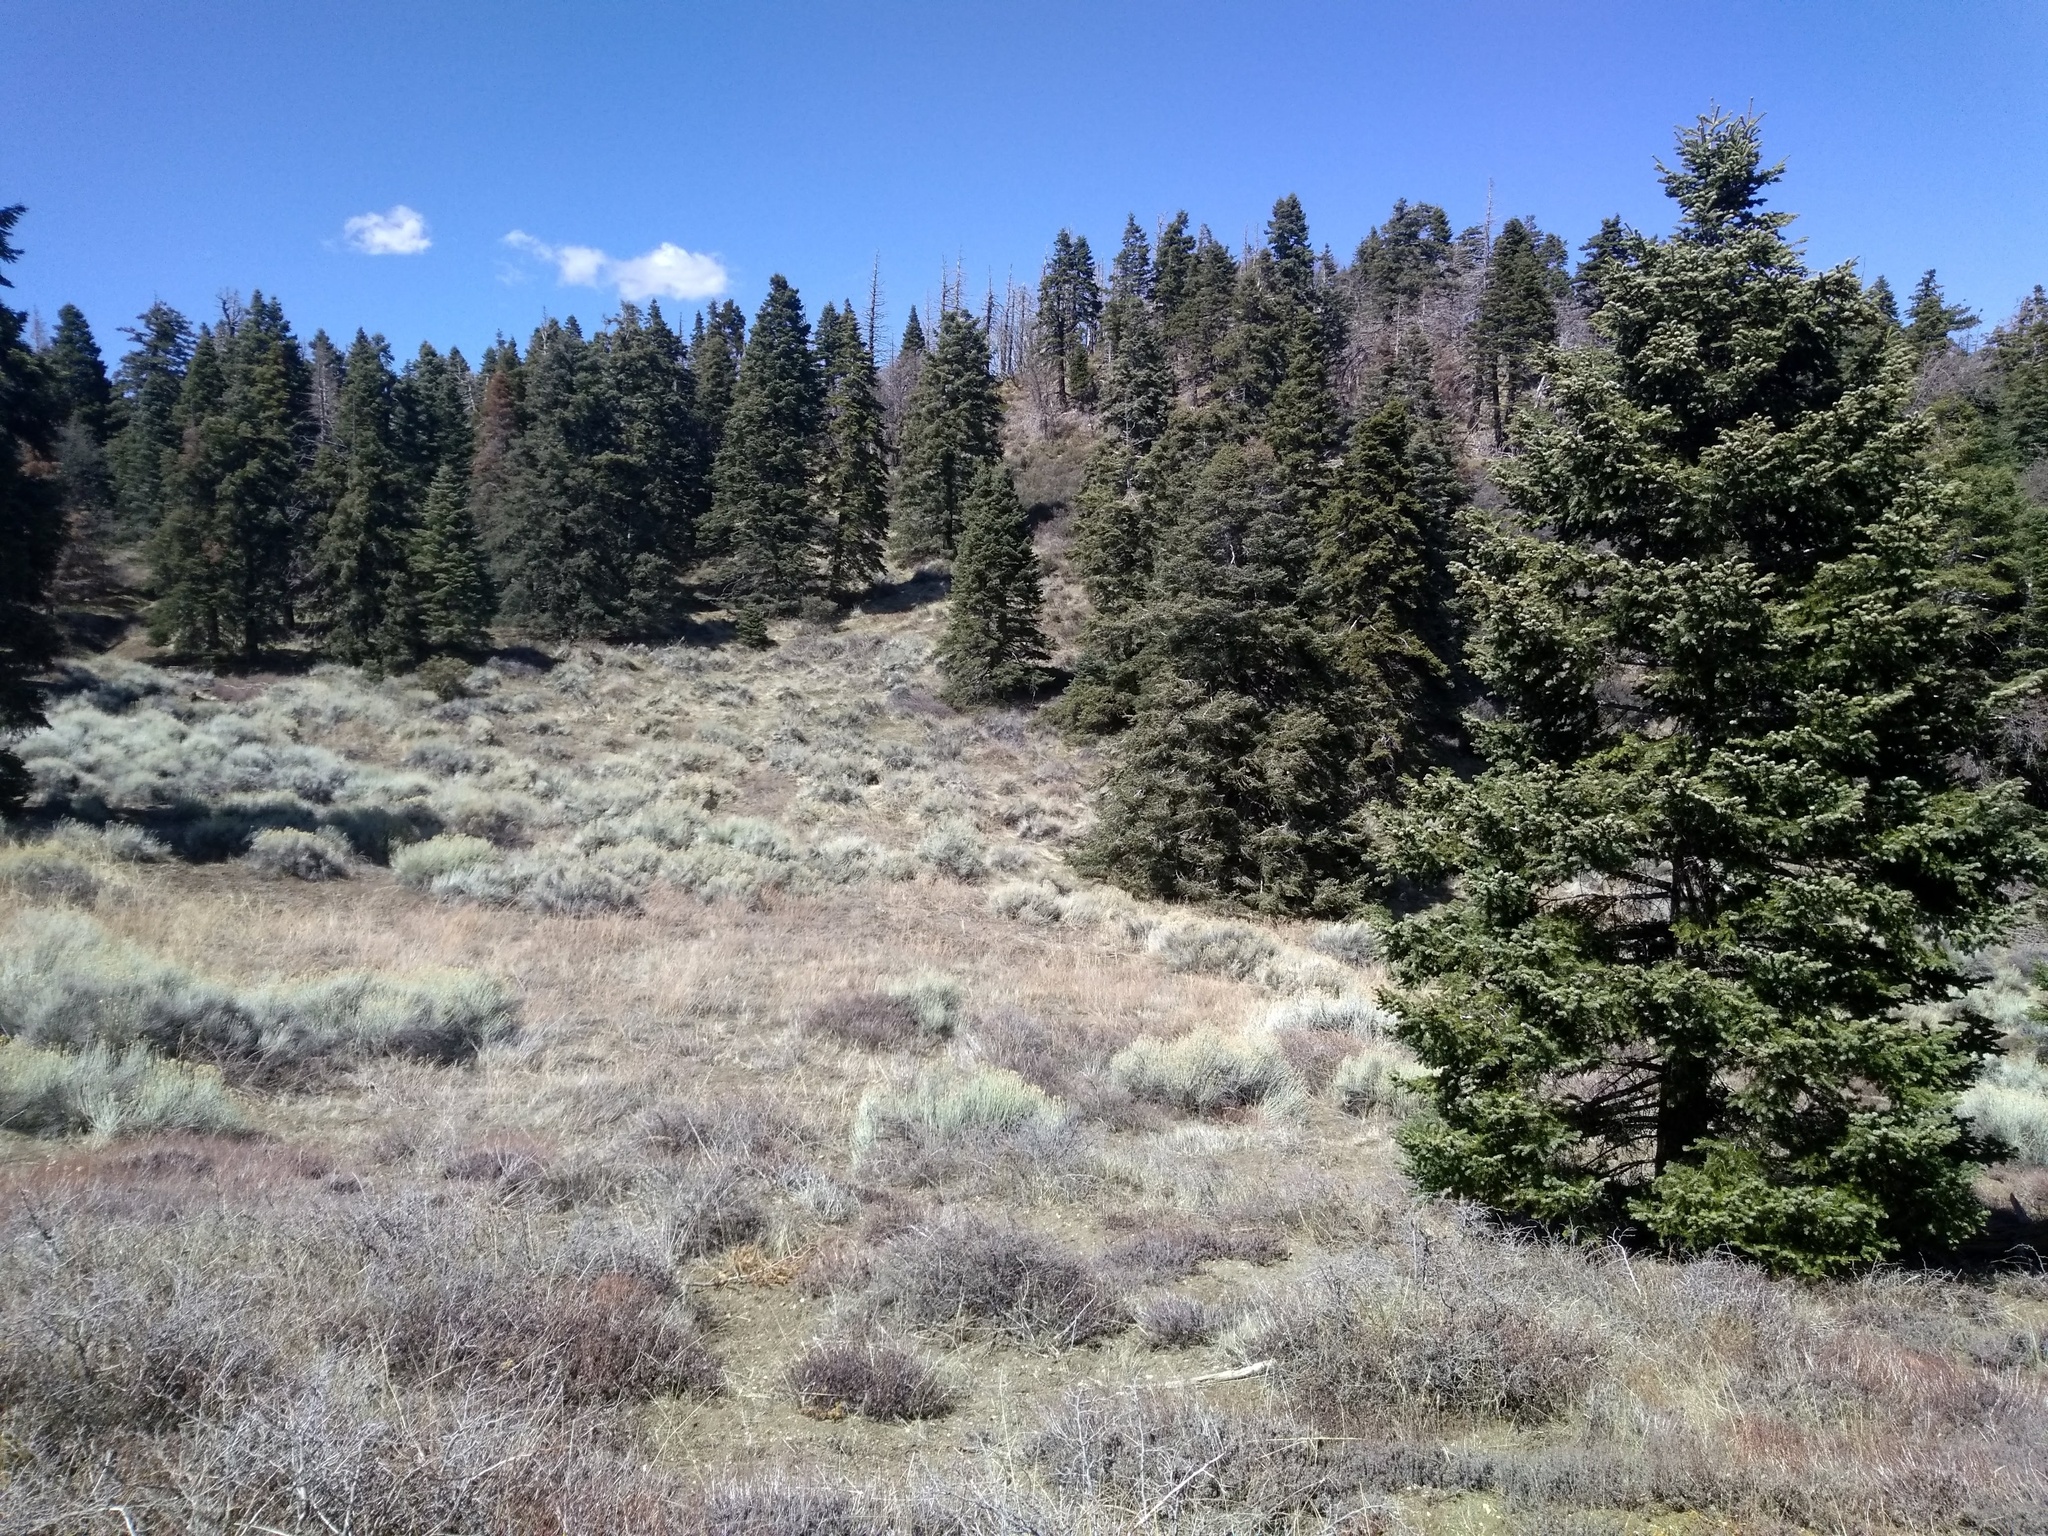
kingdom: Plantae
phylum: Tracheophyta
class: Pinopsida
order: Pinales
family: Pinaceae
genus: Abies
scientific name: Abies concolor
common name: Colorado fir
